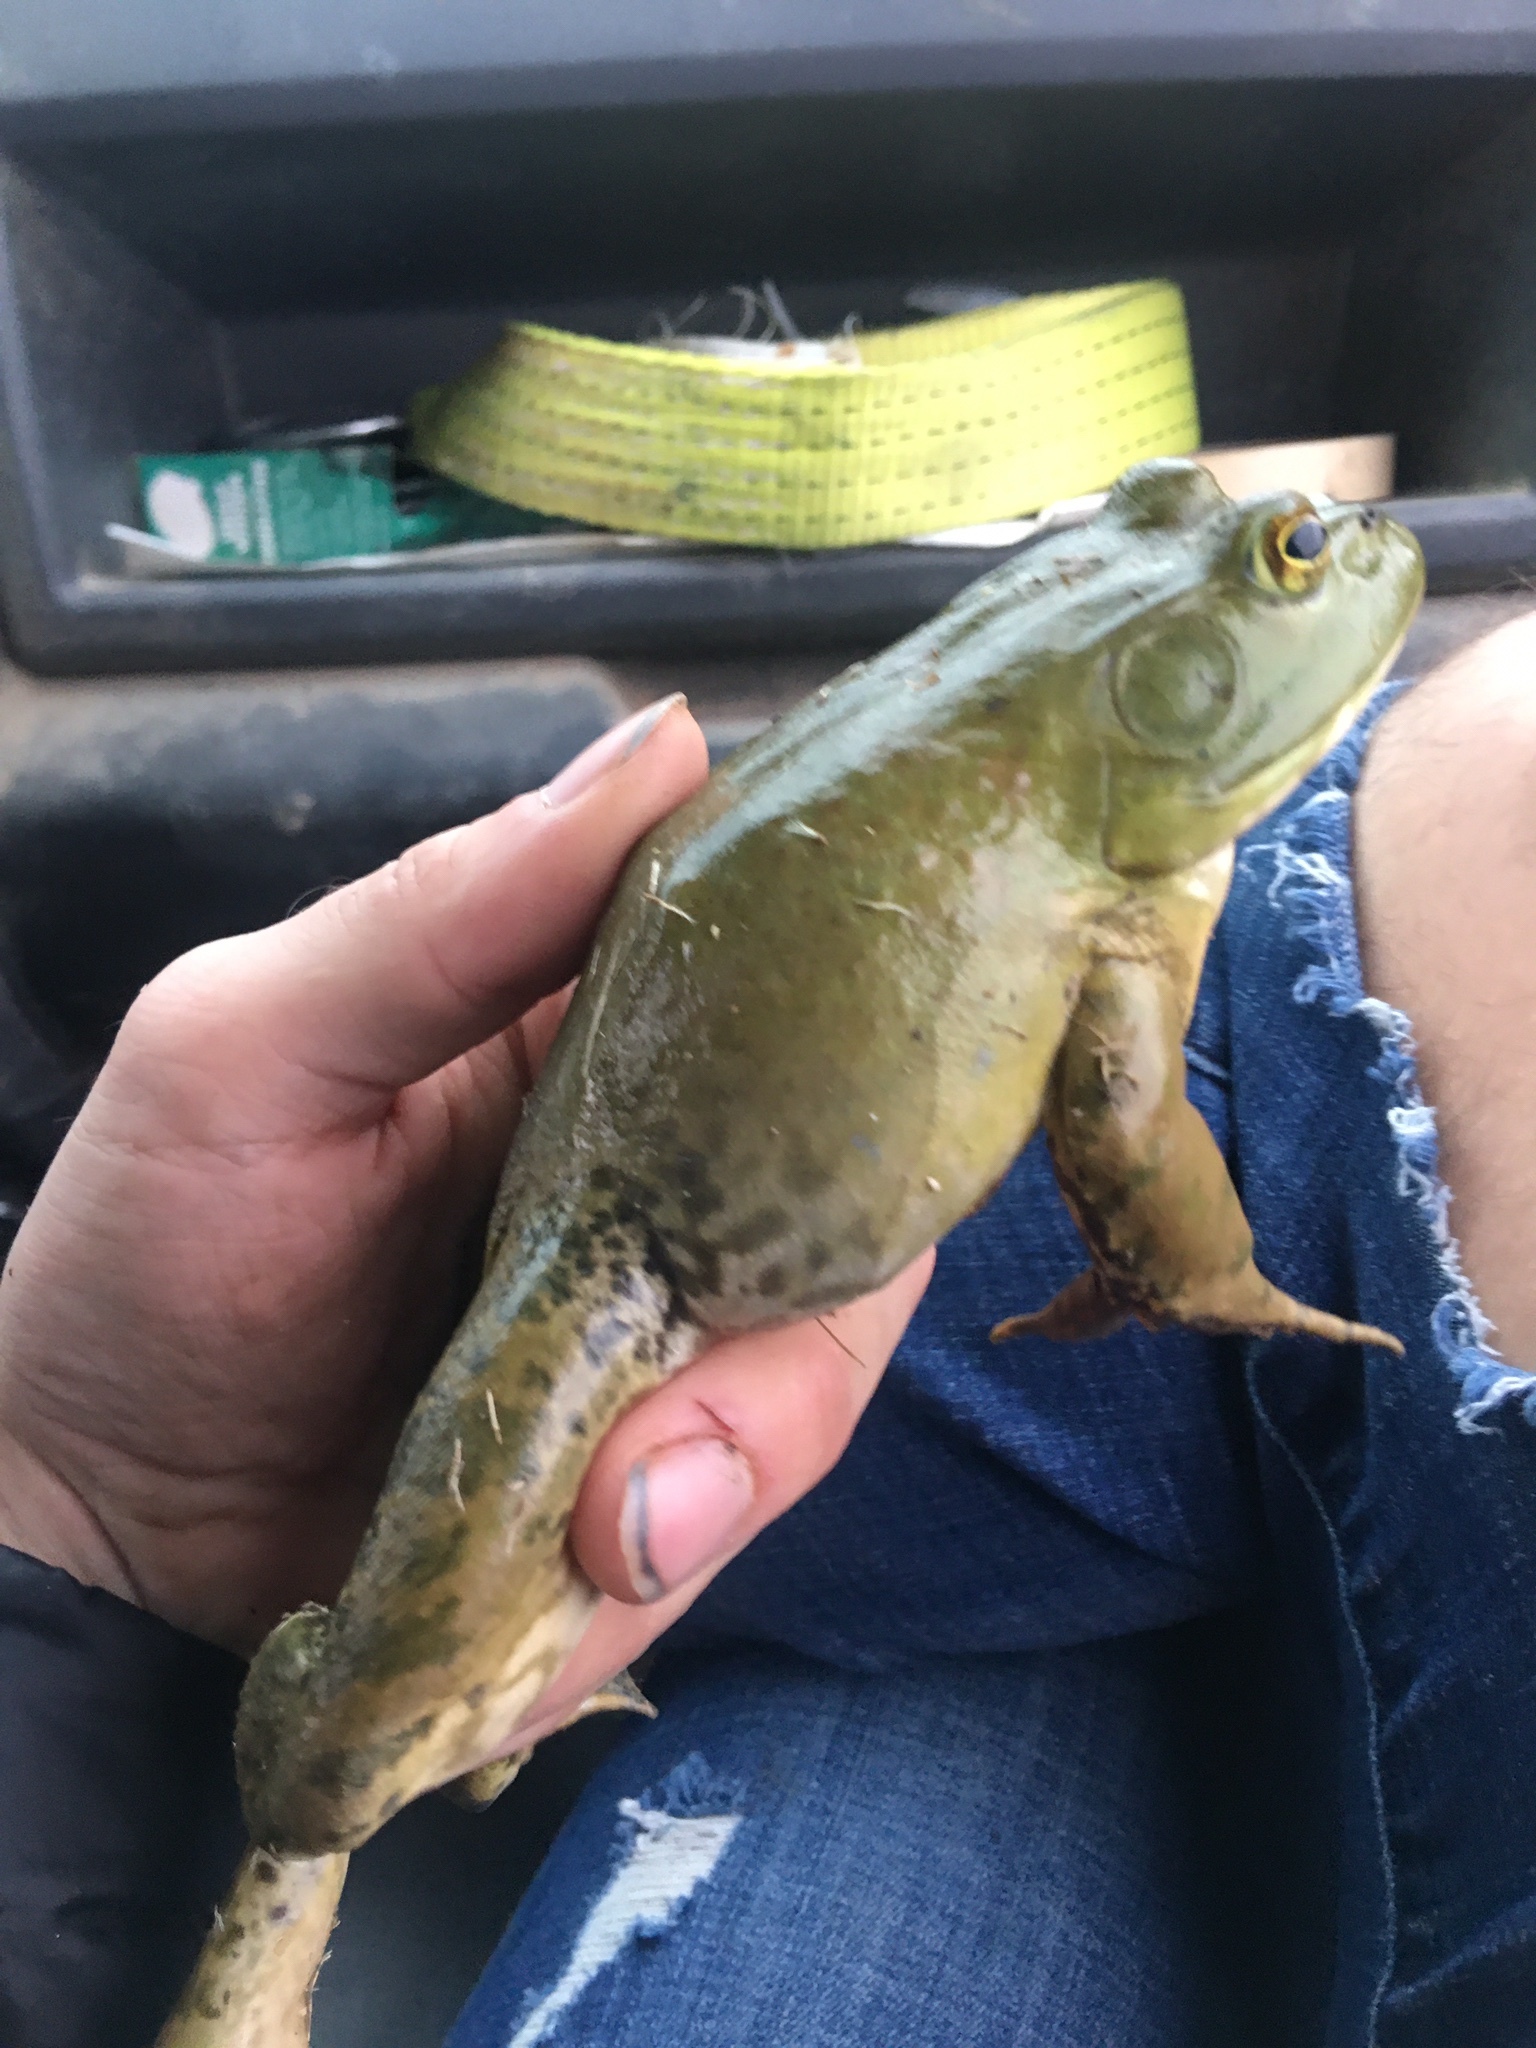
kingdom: Animalia
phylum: Chordata
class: Amphibia
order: Anura
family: Ranidae
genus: Lithobates
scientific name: Lithobates catesbeianus
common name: American bullfrog
